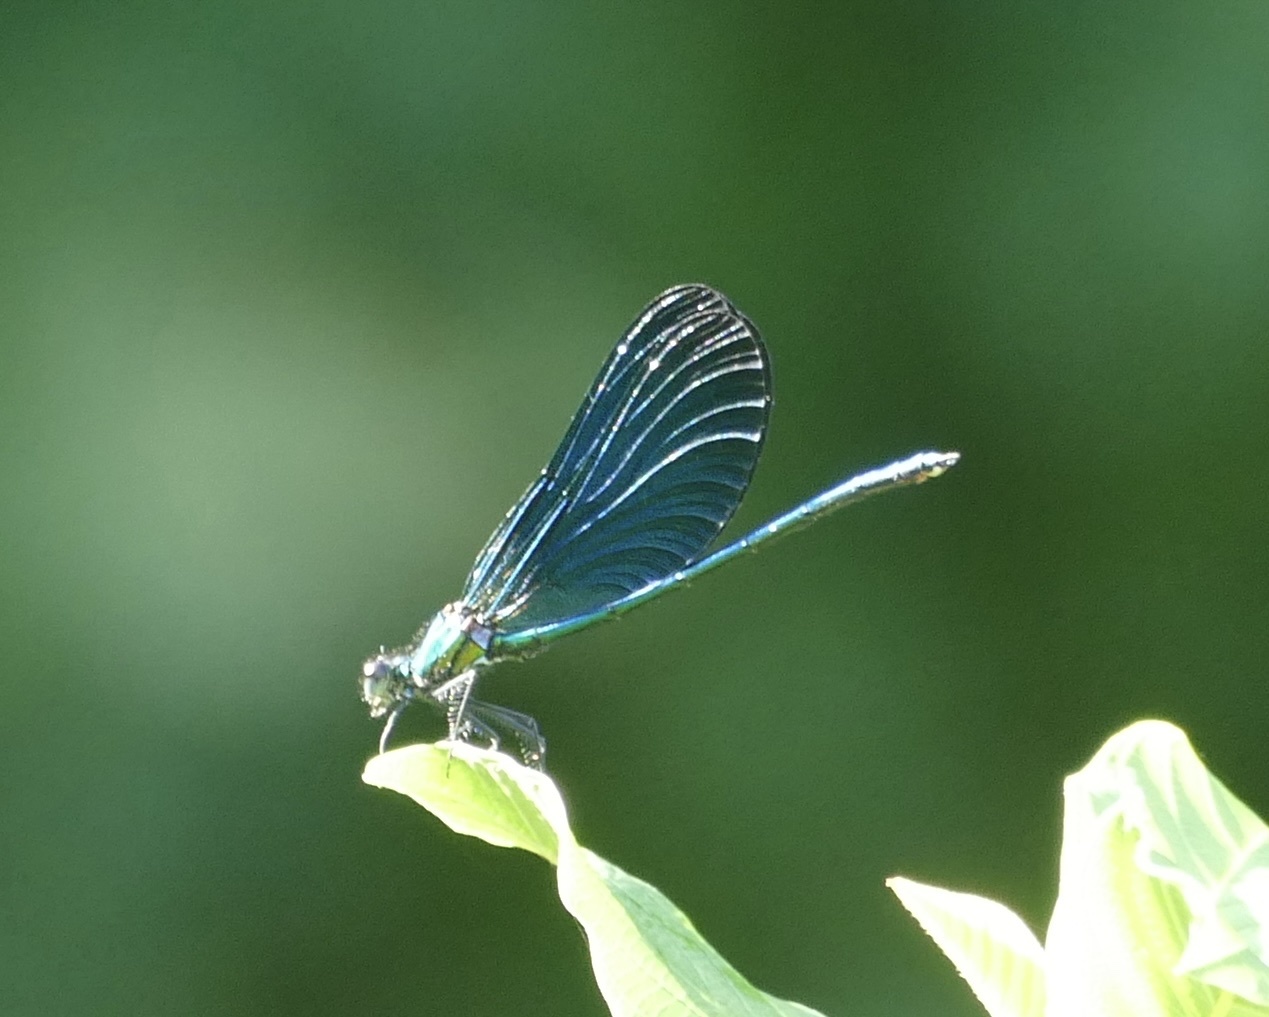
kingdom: Animalia
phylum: Arthropoda
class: Insecta
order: Odonata
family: Calopterygidae
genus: Calopteryx
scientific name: Calopteryx virgo
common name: Beautiful demoiselle
